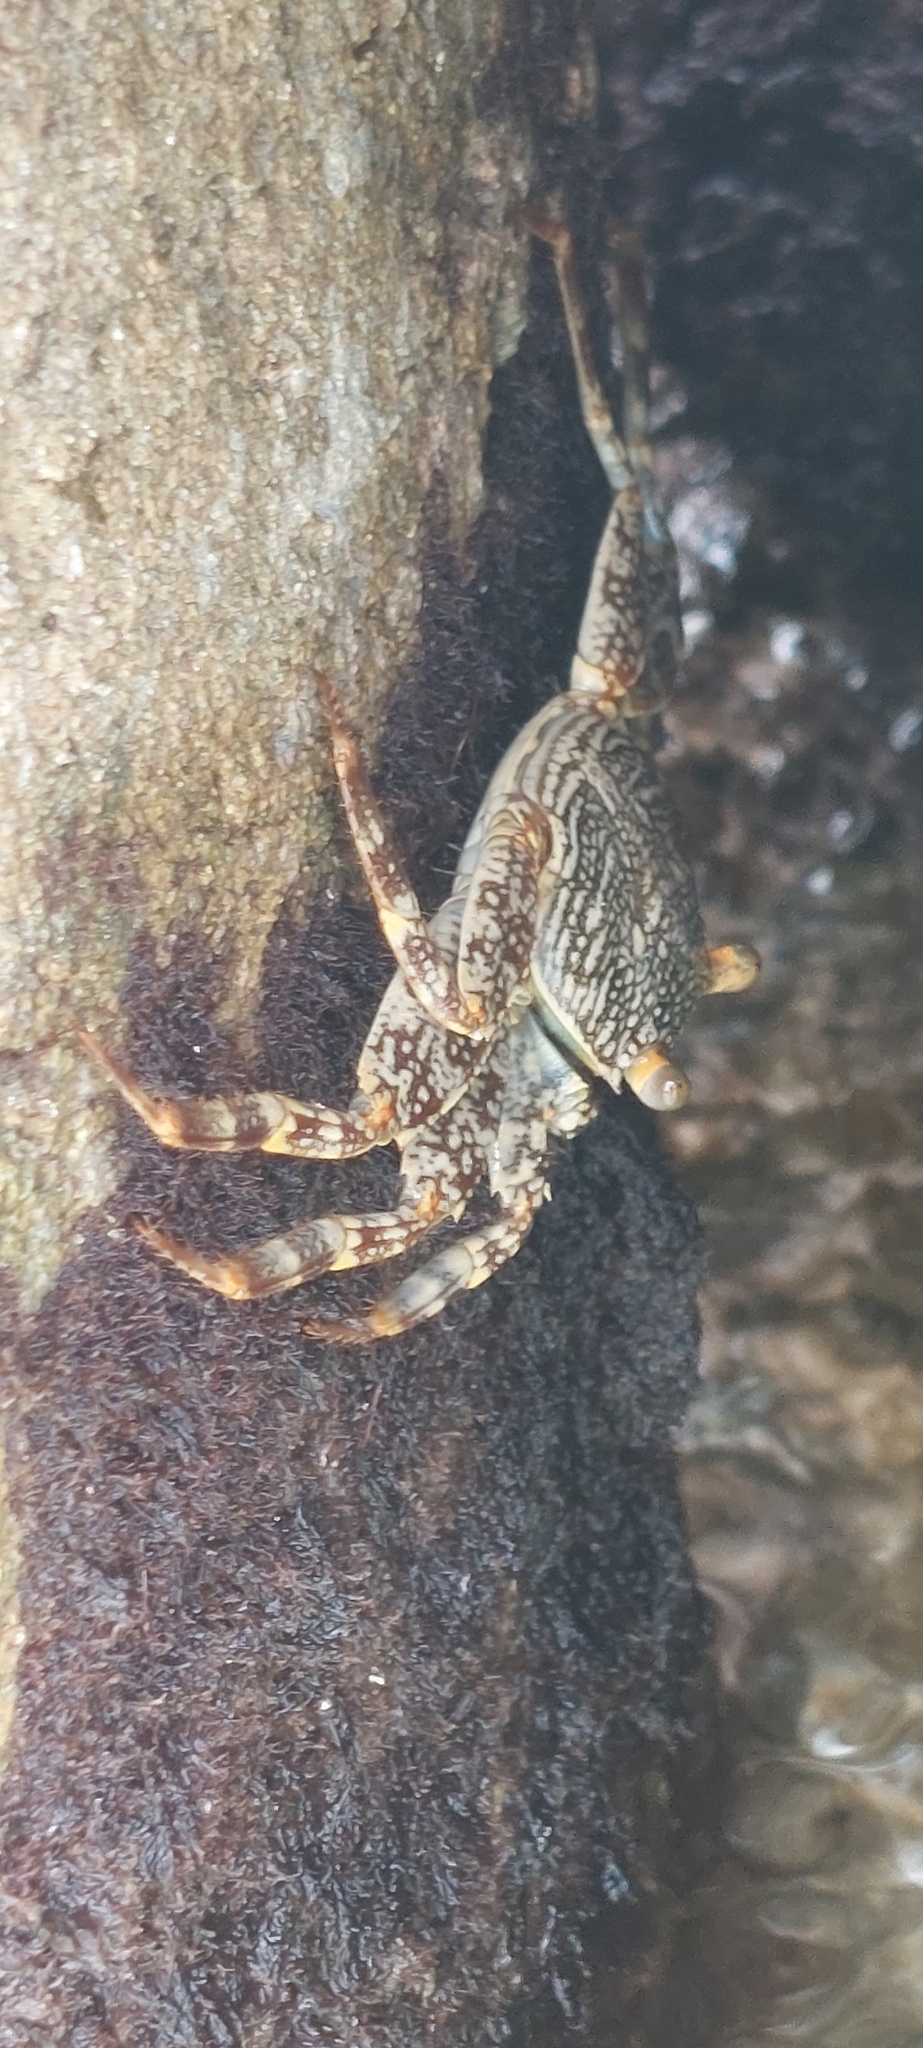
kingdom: Animalia
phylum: Arthropoda
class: Malacostraca
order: Decapoda
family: Grapsidae
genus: Grapsus
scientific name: Grapsus grapsus
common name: Sally lightfoot
